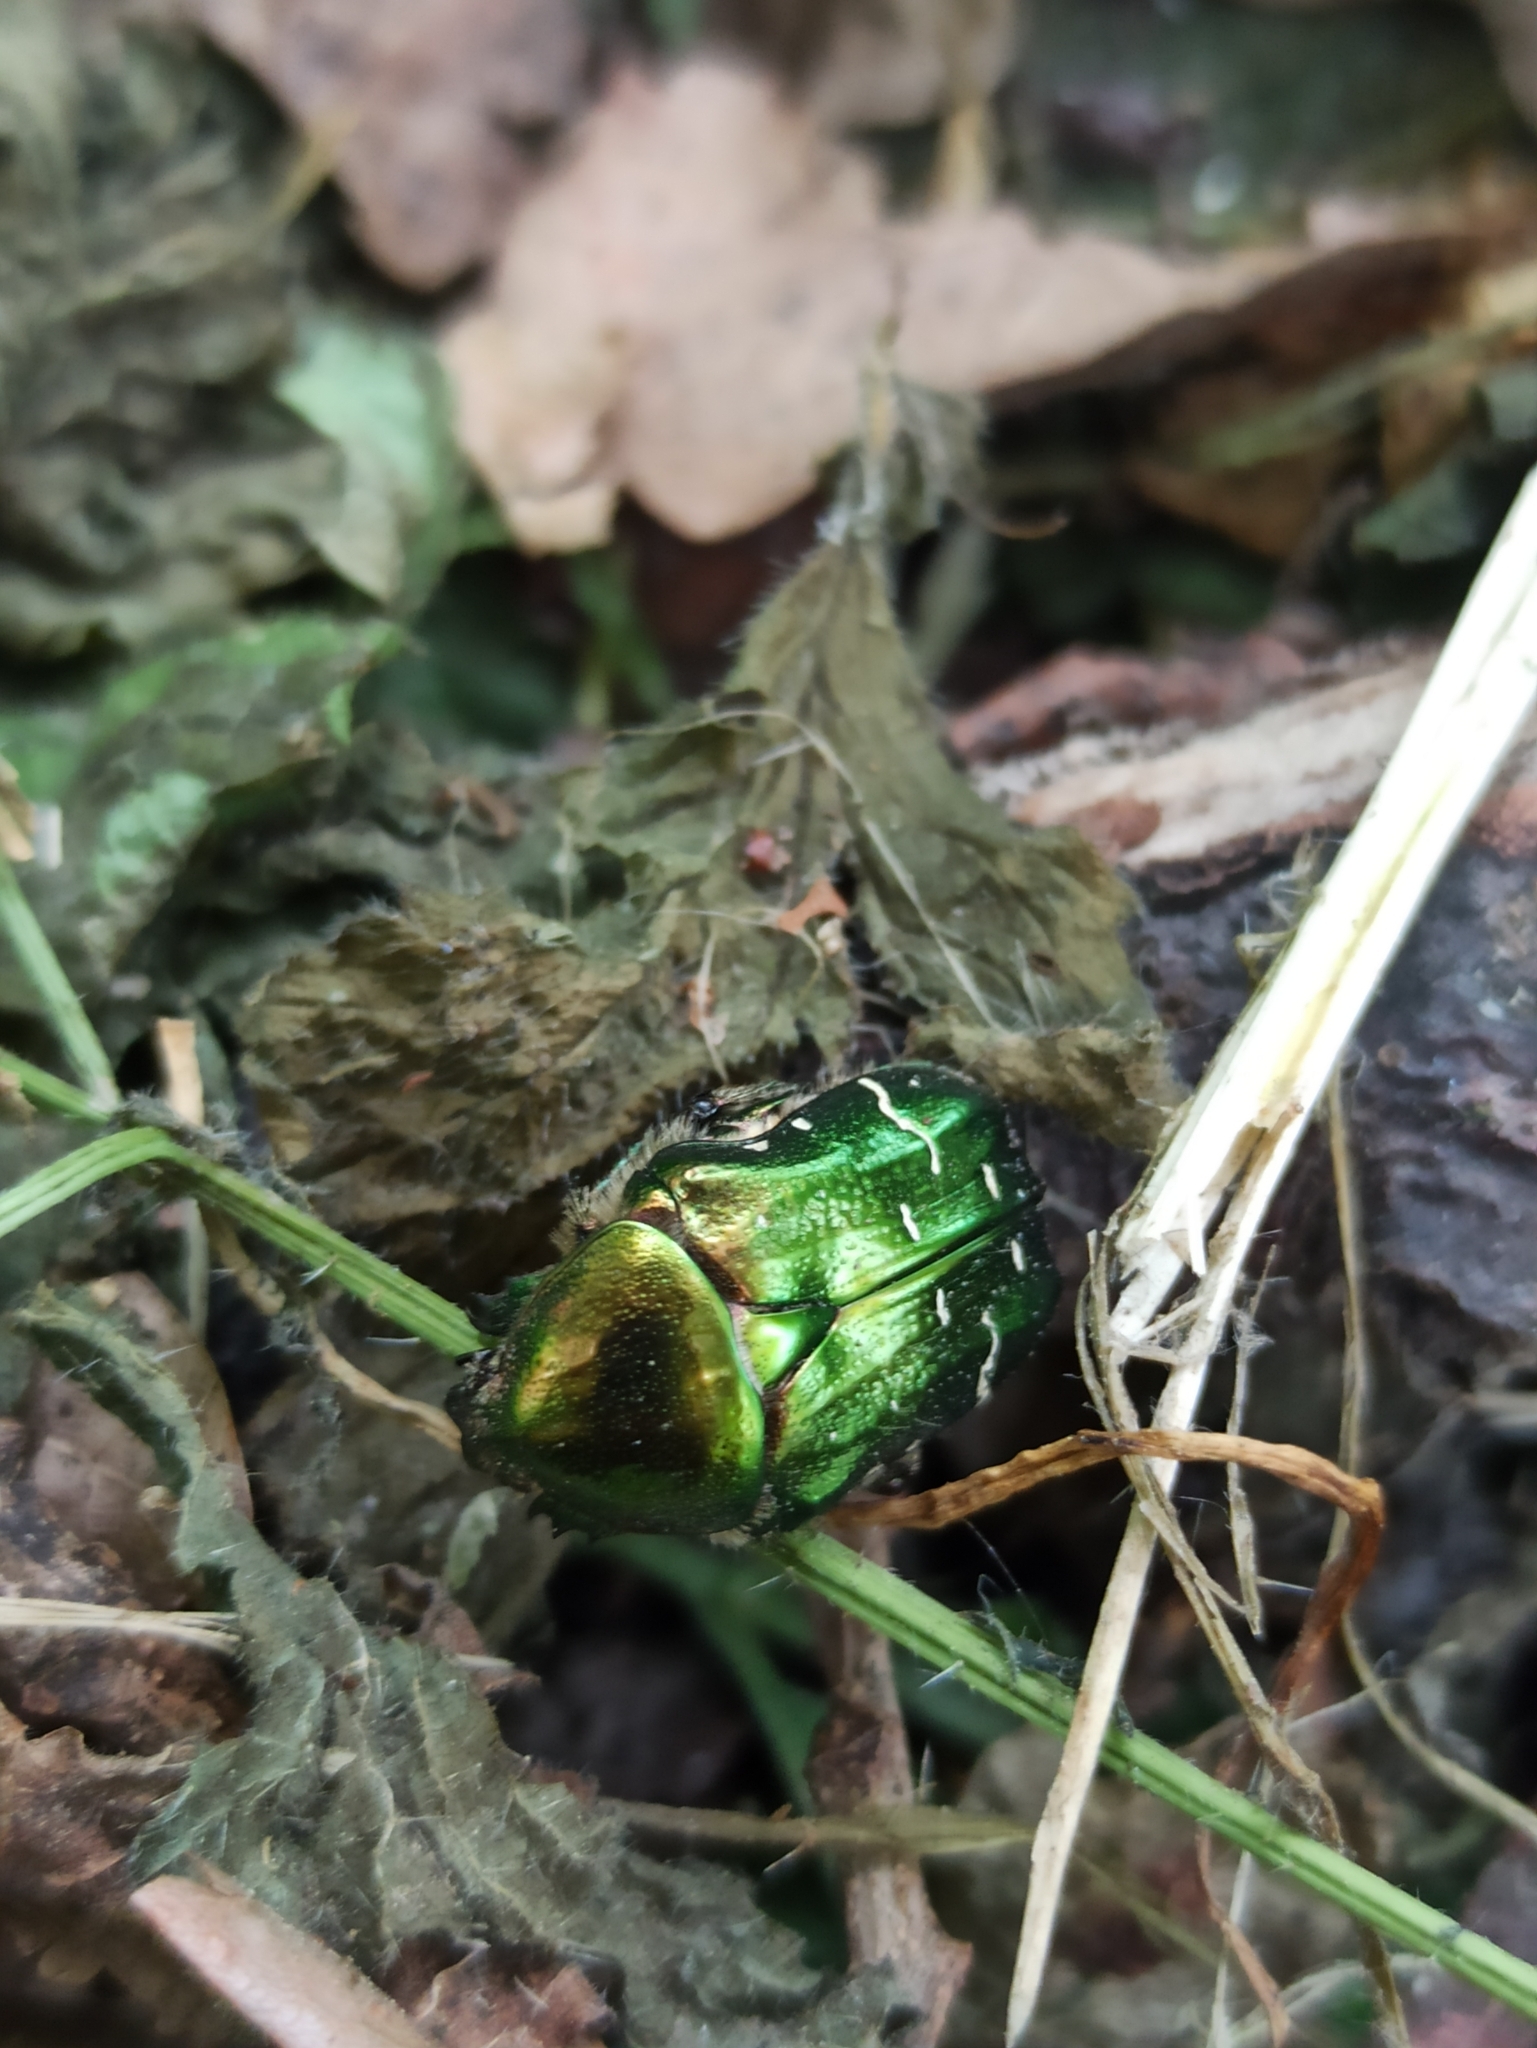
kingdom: Animalia
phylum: Arthropoda
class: Insecta
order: Coleoptera
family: Scarabaeidae
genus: Cetonia
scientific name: Cetonia aurata
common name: Rose chafer
